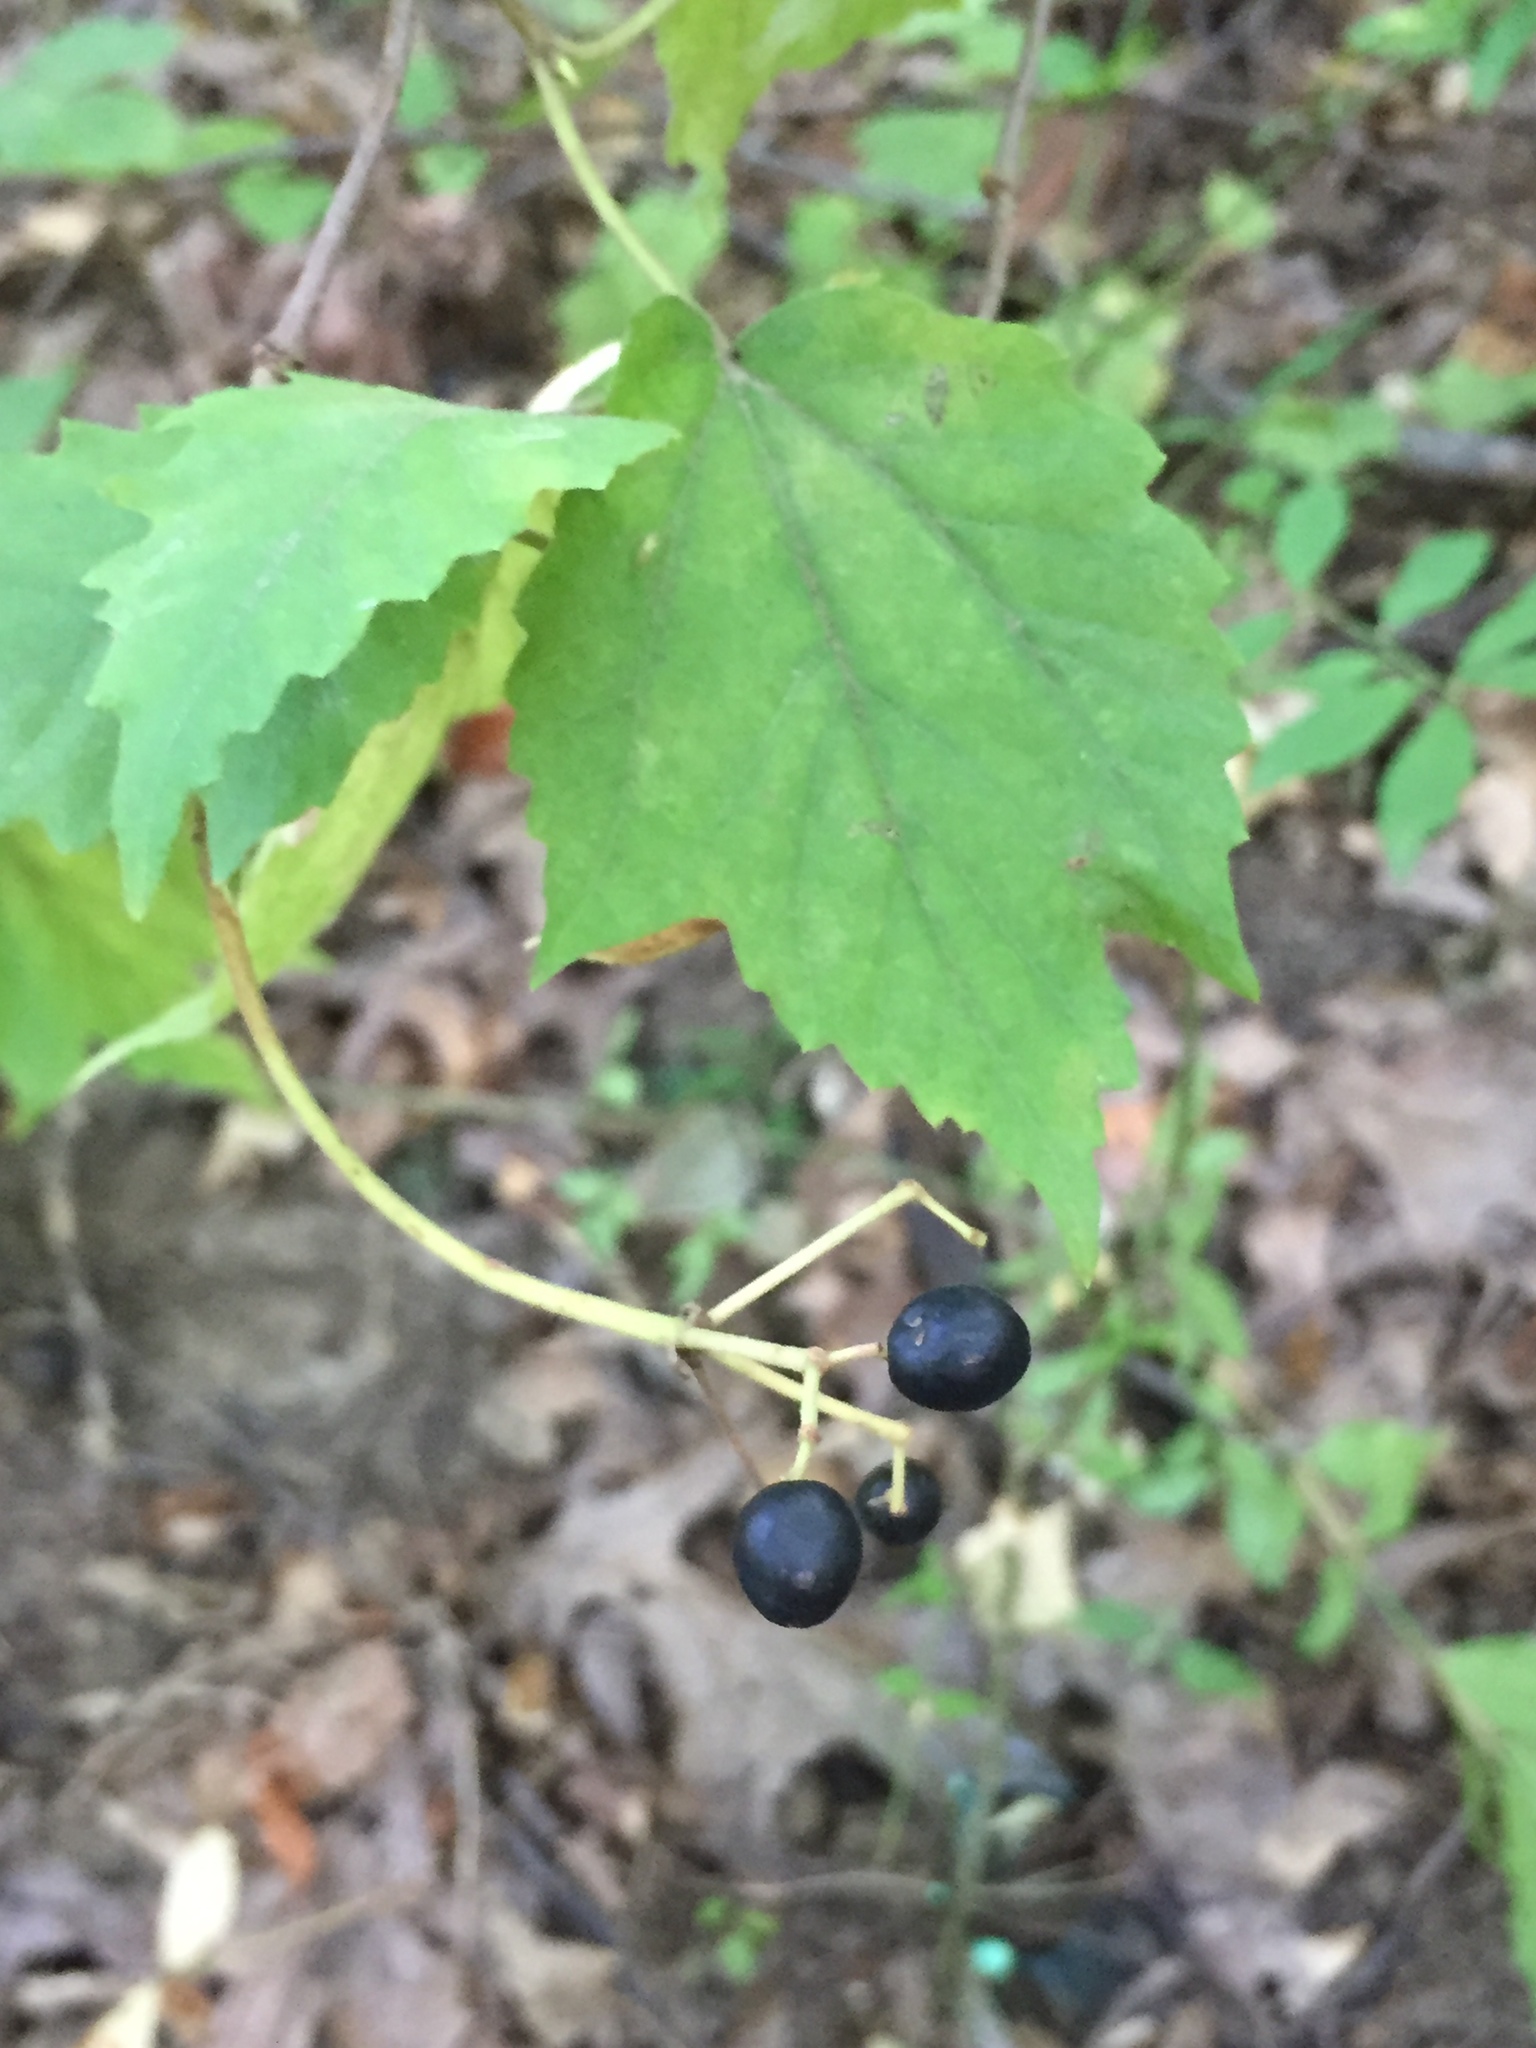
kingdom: Plantae
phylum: Tracheophyta
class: Magnoliopsida
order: Dipsacales
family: Viburnaceae
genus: Viburnum
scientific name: Viburnum acerifolium
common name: Dockmackie
